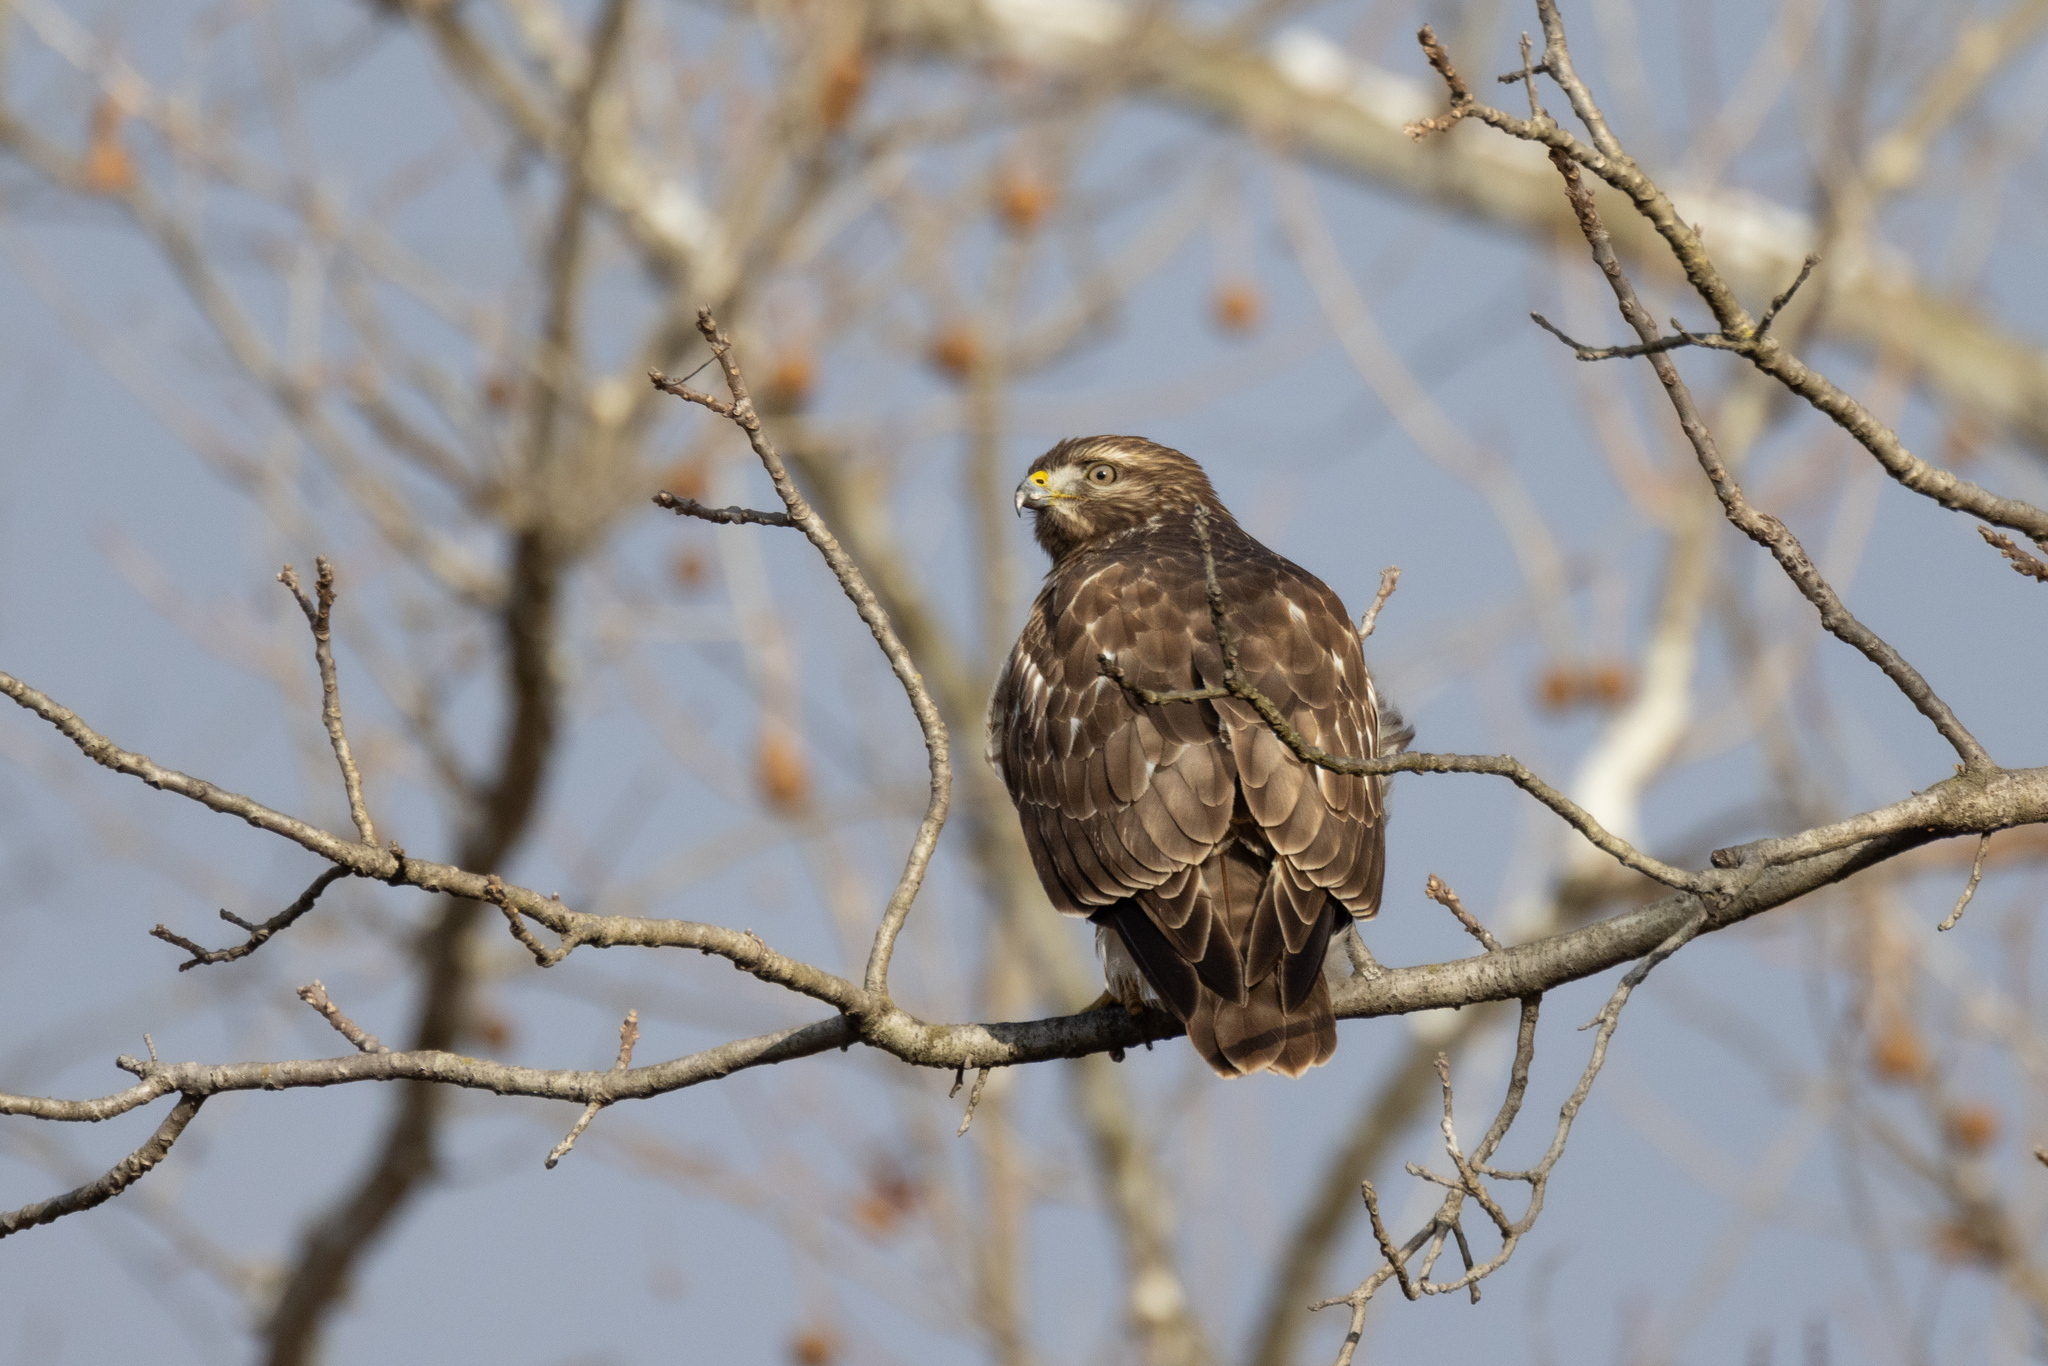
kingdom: Animalia
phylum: Chordata
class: Aves
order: Accipitriformes
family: Accipitridae
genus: Buteo
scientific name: Buteo lineatus
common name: Red-shouldered hawk
